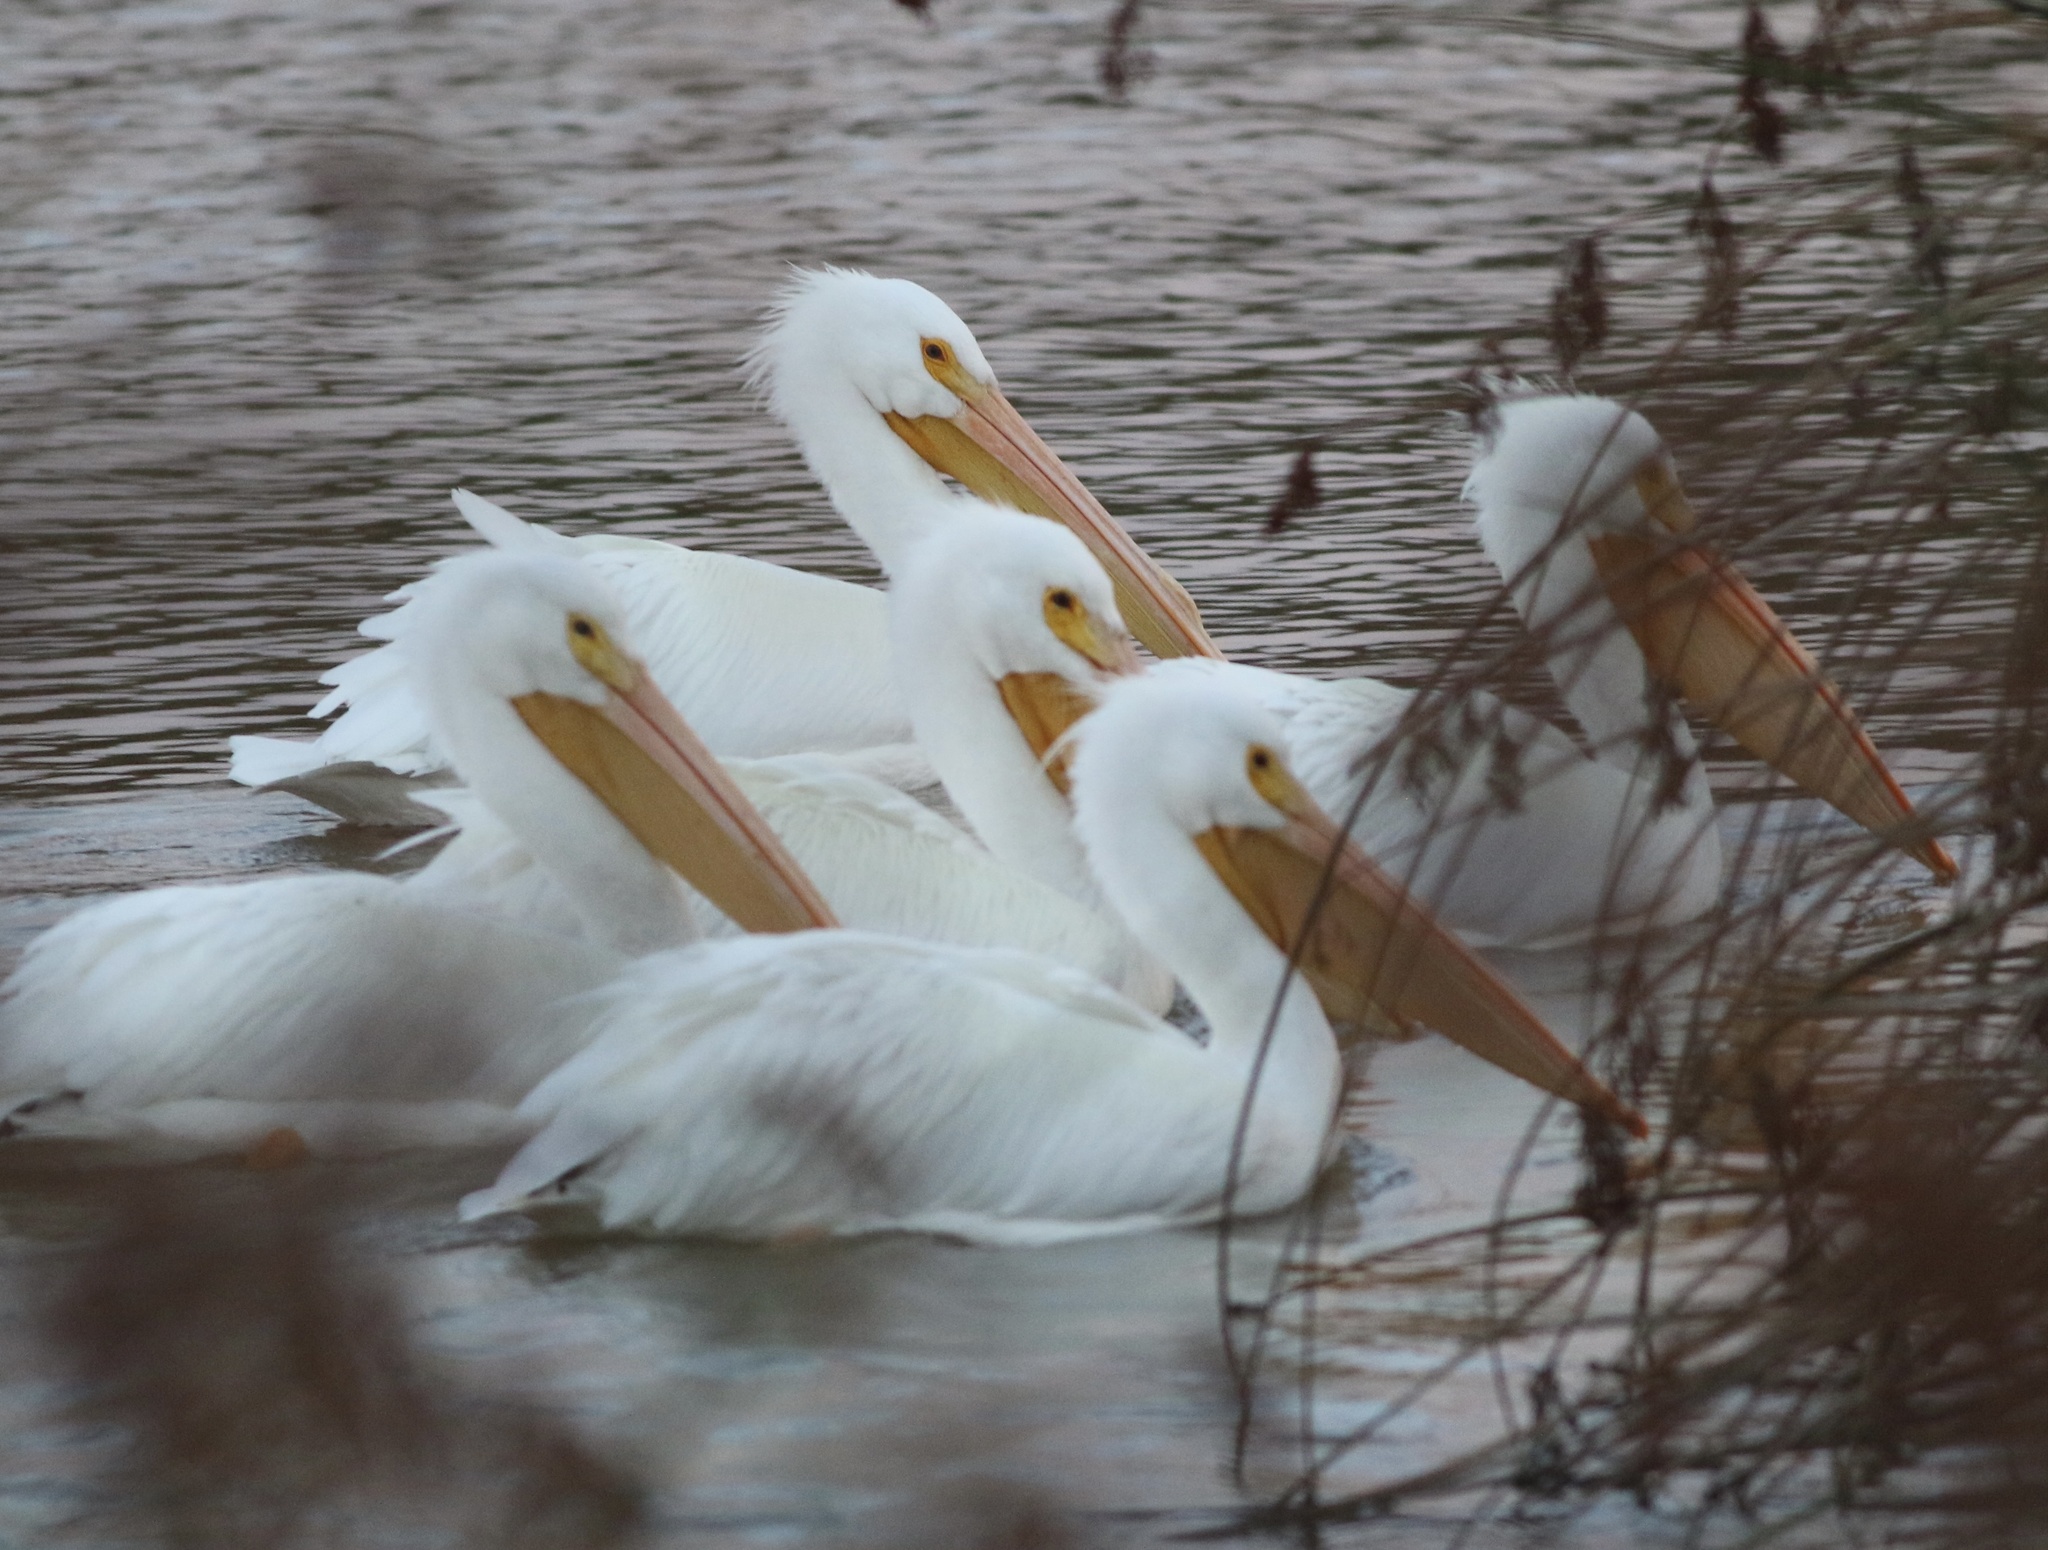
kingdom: Animalia
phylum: Chordata
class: Aves
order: Pelecaniformes
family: Pelecanidae
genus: Pelecanus
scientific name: Pelecanus erythrorhynchos
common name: American white pelican
